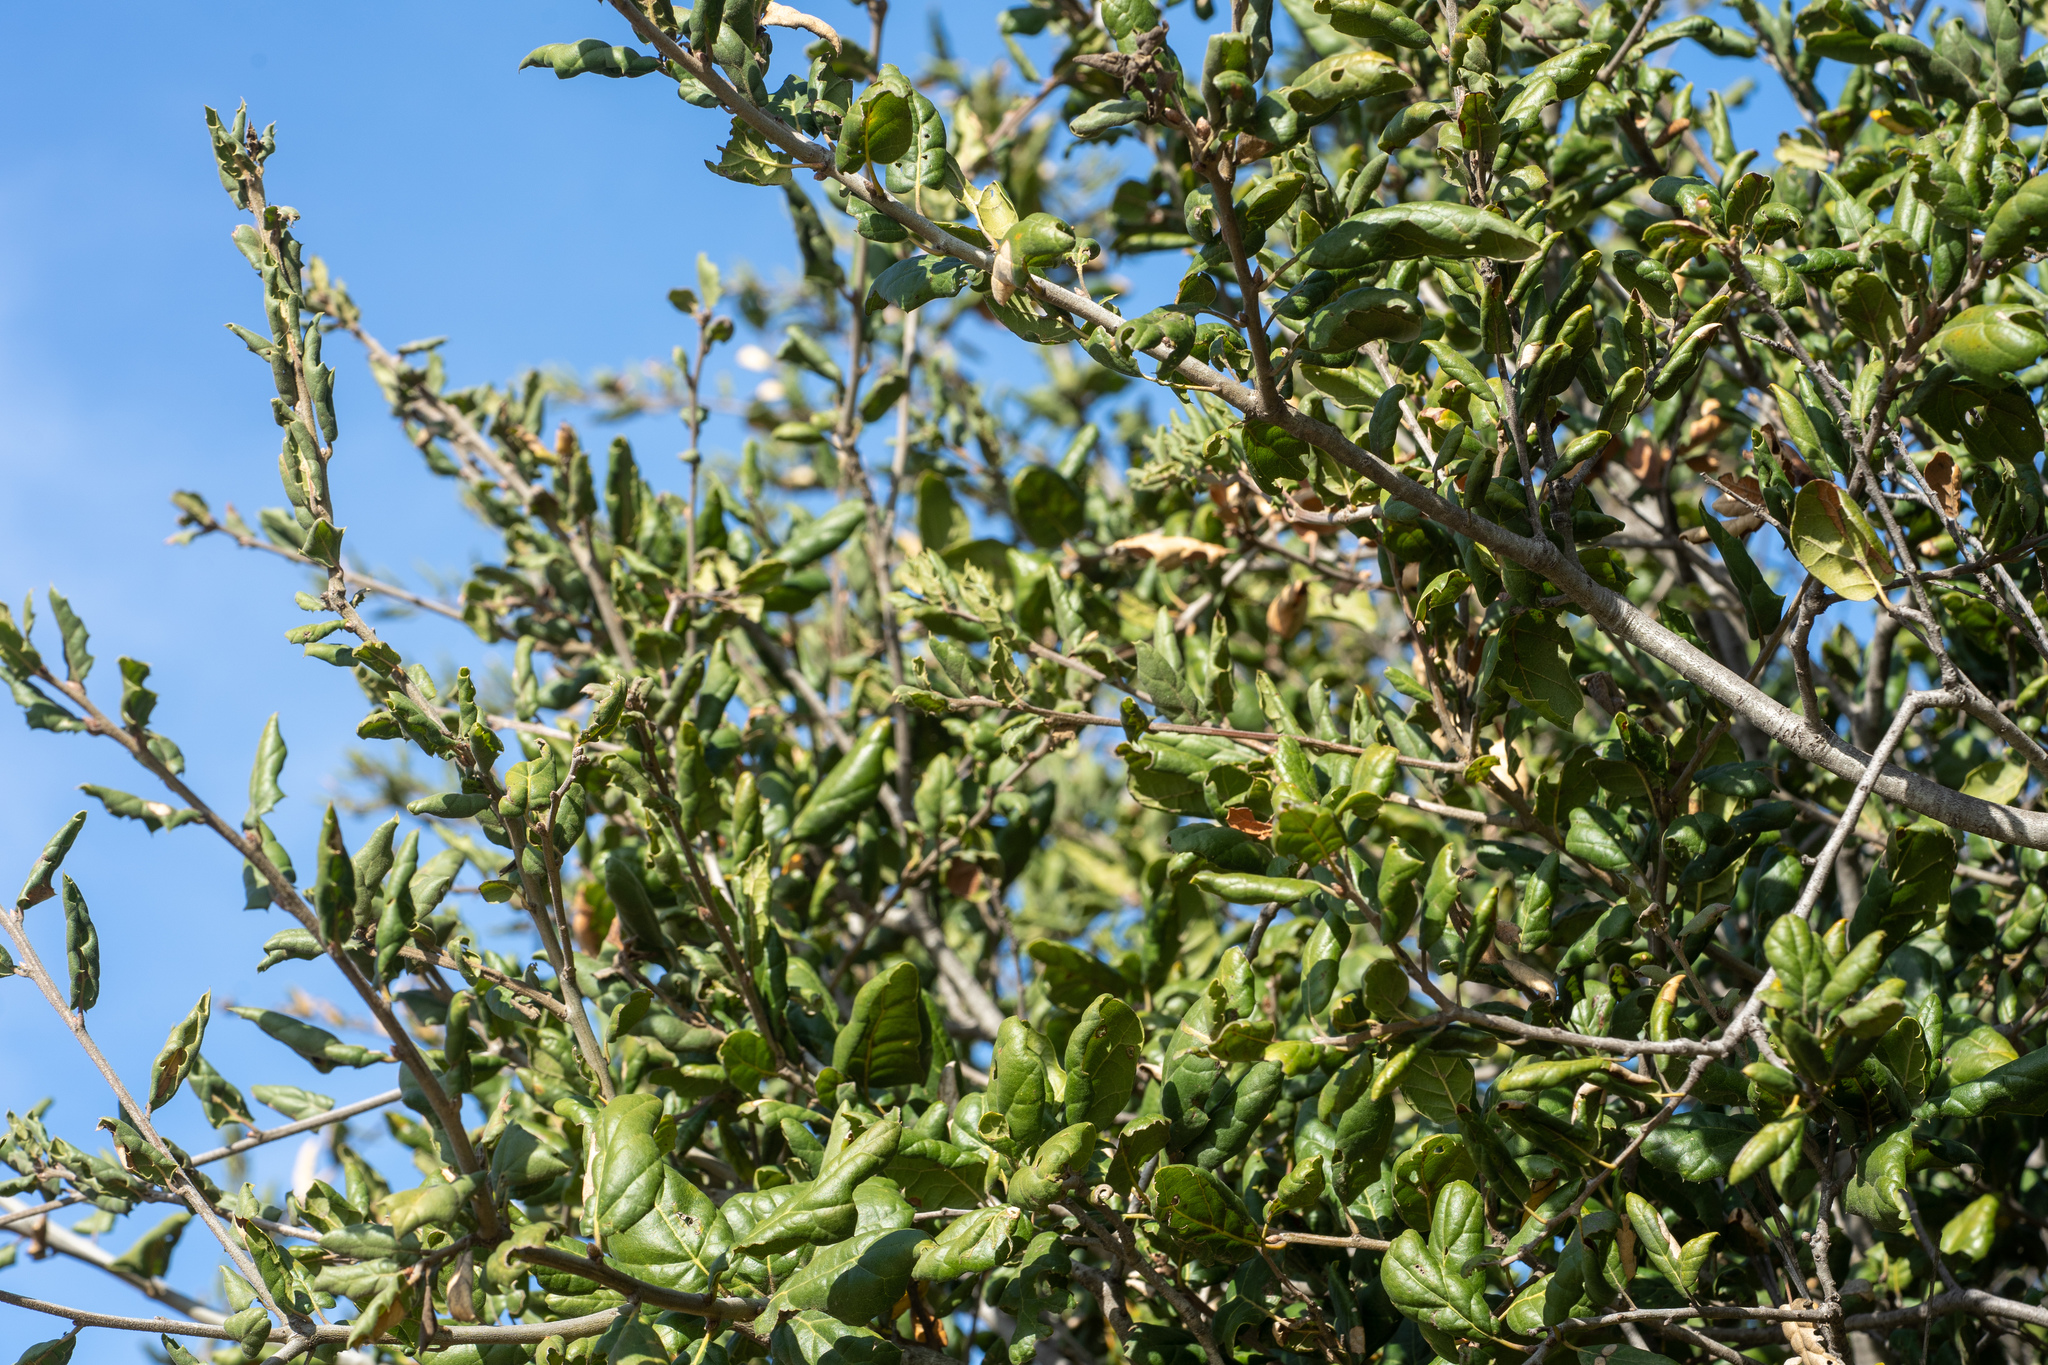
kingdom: Plantae
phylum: Tracheophyta
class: Magnoliopsida
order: Fagales
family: Fagaceae
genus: Quercus
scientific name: Quercus agrifolia
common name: California live oak
